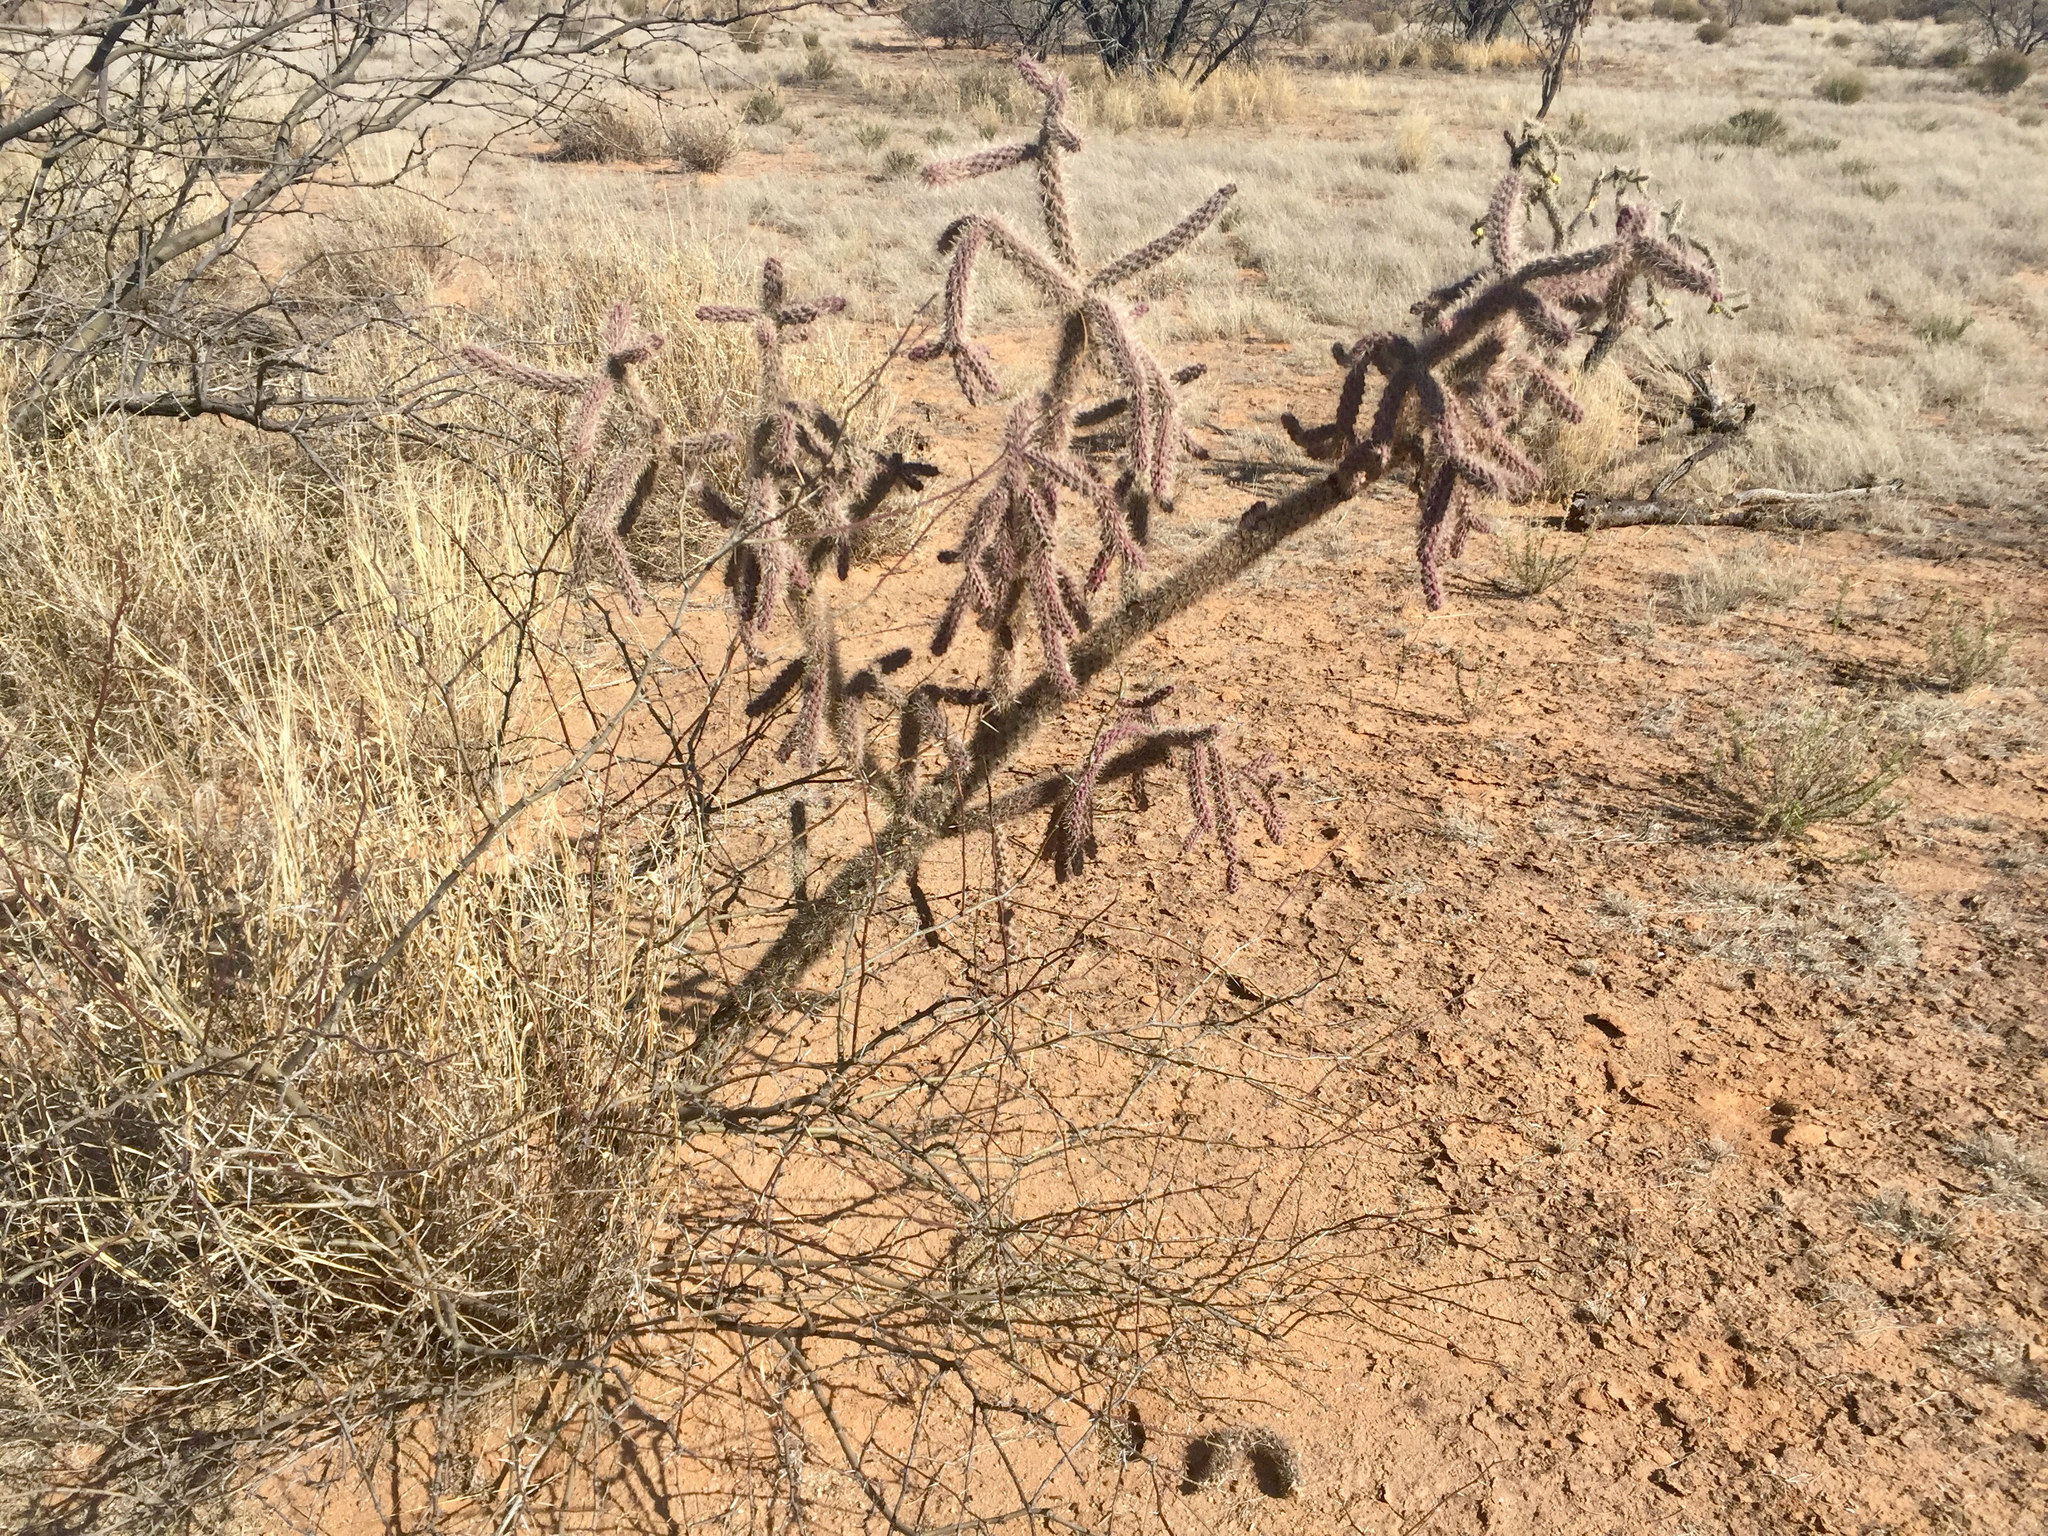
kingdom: Plantae
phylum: Tracheophyta
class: Magnoliopsida
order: Caryophyllales
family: Cactaceae
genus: Cylindropuntia
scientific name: Cylindropuntia thurberi
